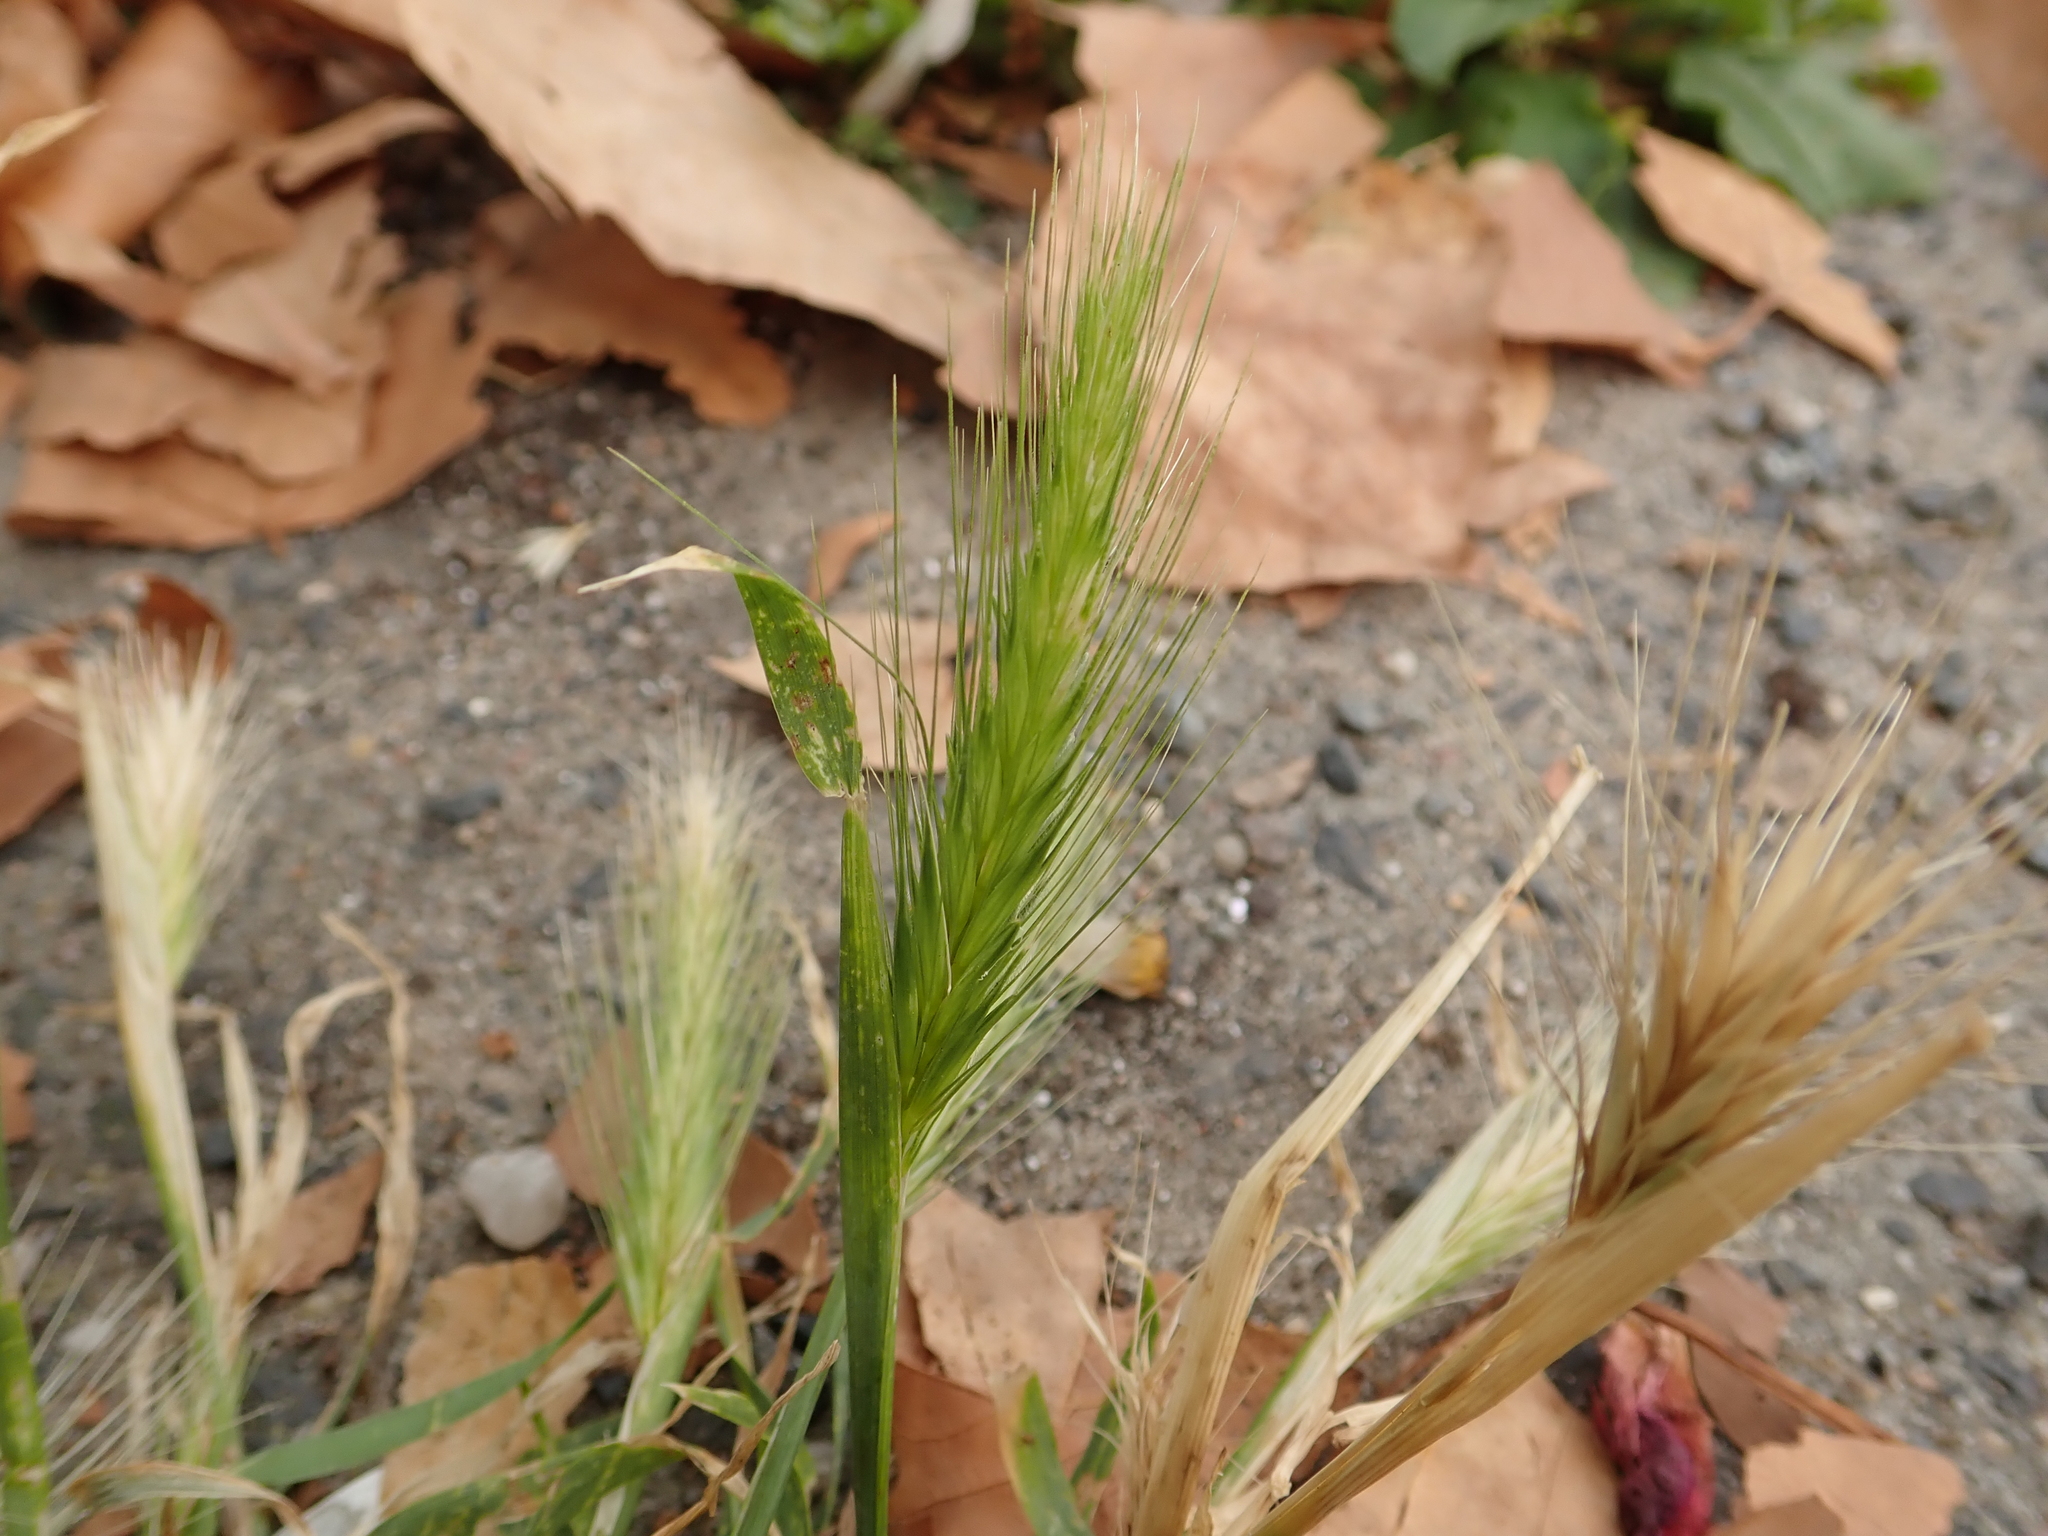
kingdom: Plantae
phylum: Tracheophyta
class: Liliopsida
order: Poales
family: Poaceae
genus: Hordeum
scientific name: Hordeum murinum
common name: Wall barley
